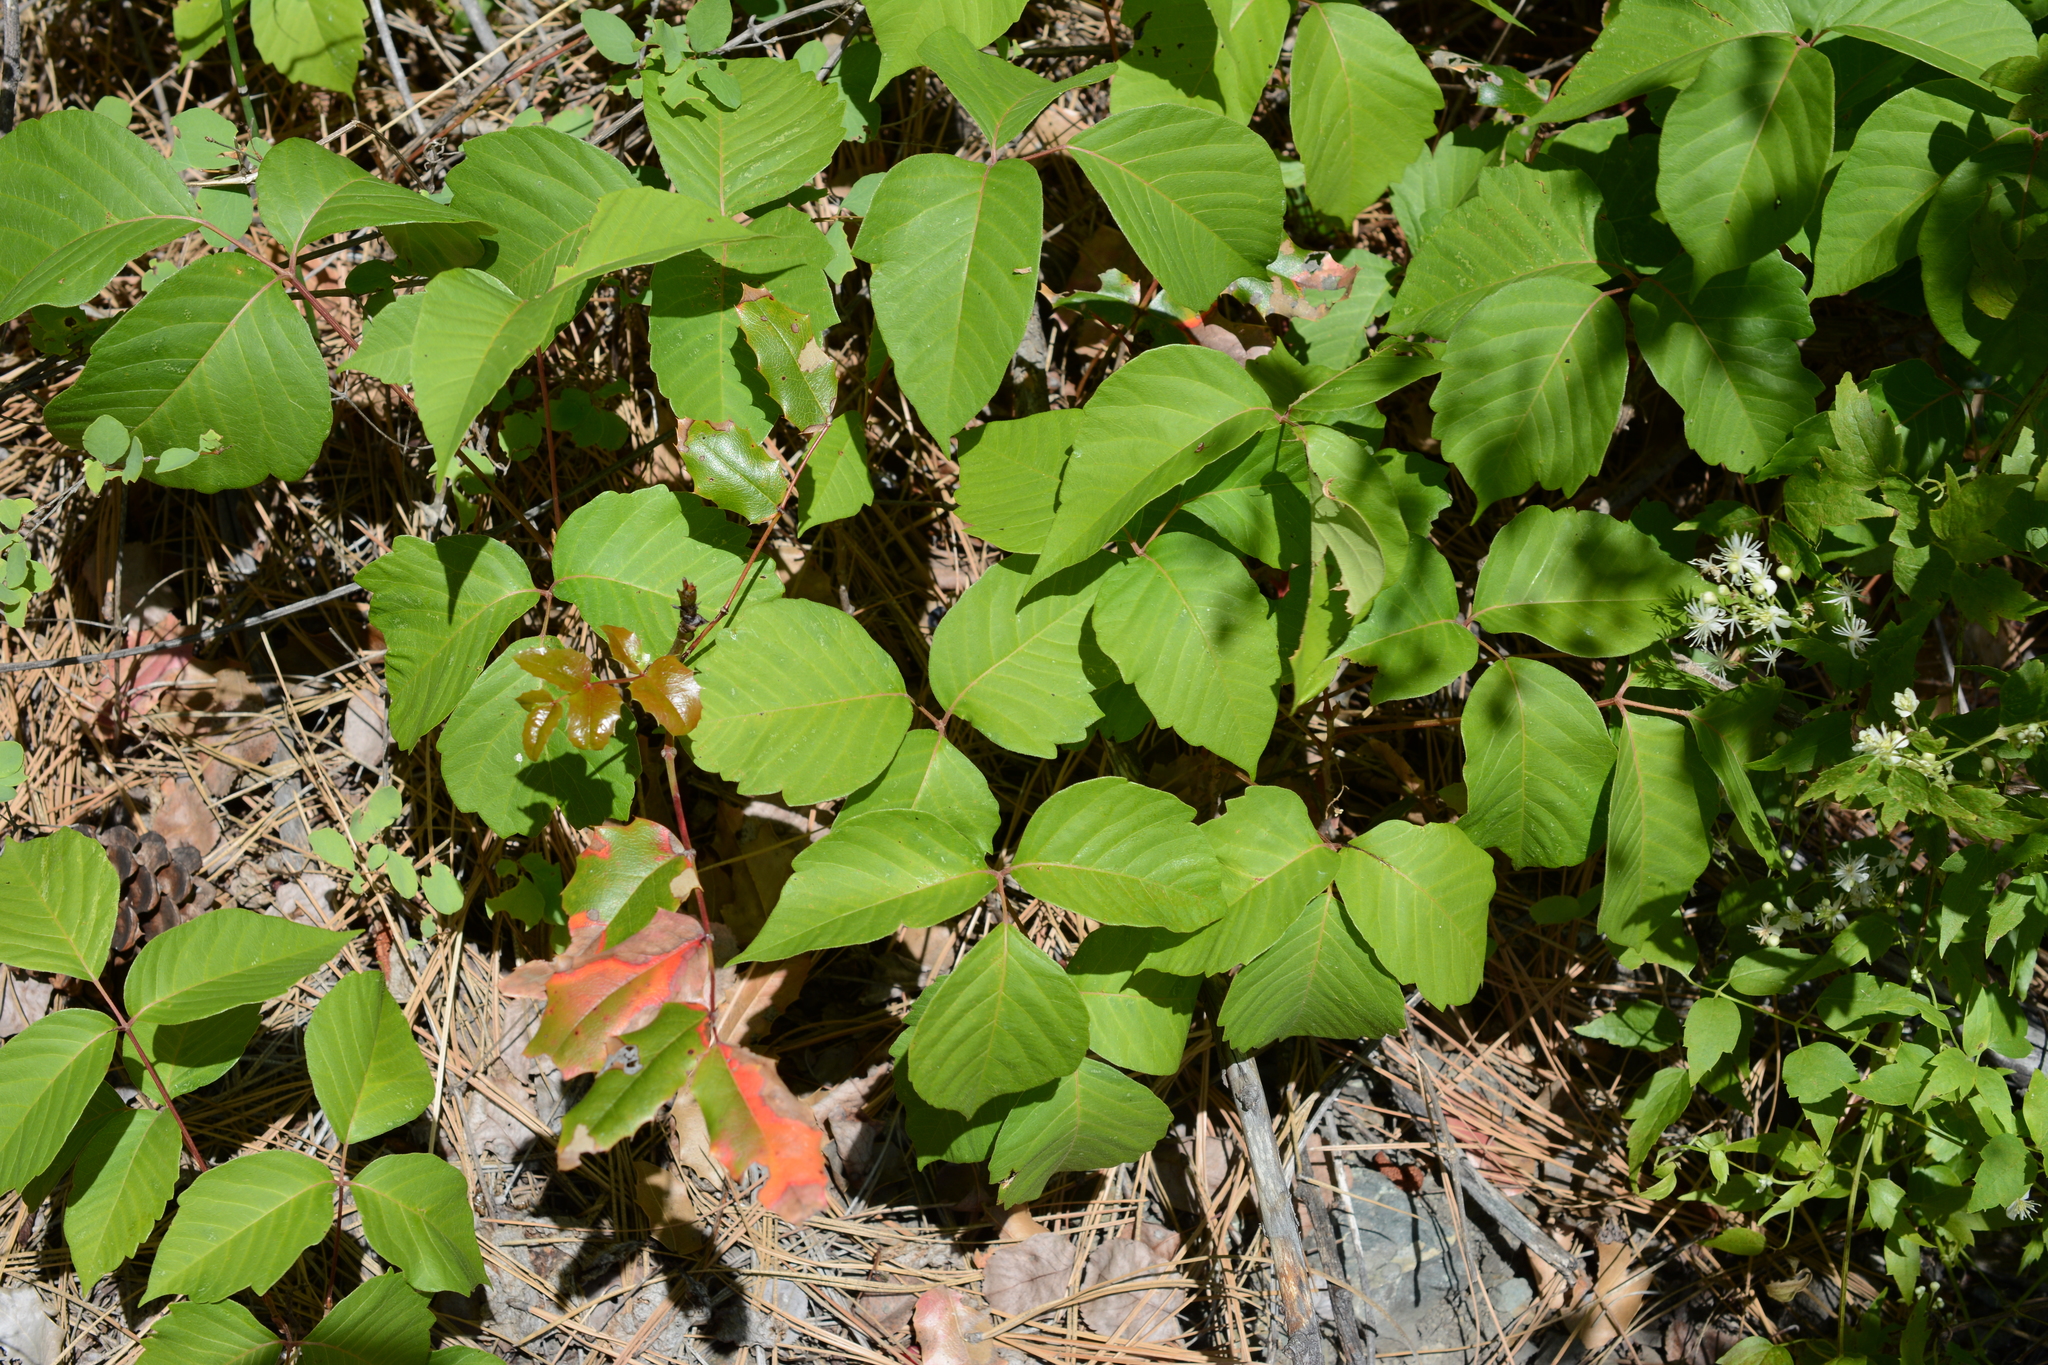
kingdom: Plantae
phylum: Tracheophyta
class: Magnoliopsida
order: Sapindales
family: Anacardiaceae
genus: Toxicodendron
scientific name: Toxicodendron rydbergii
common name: Rydberg's poison-ivy
